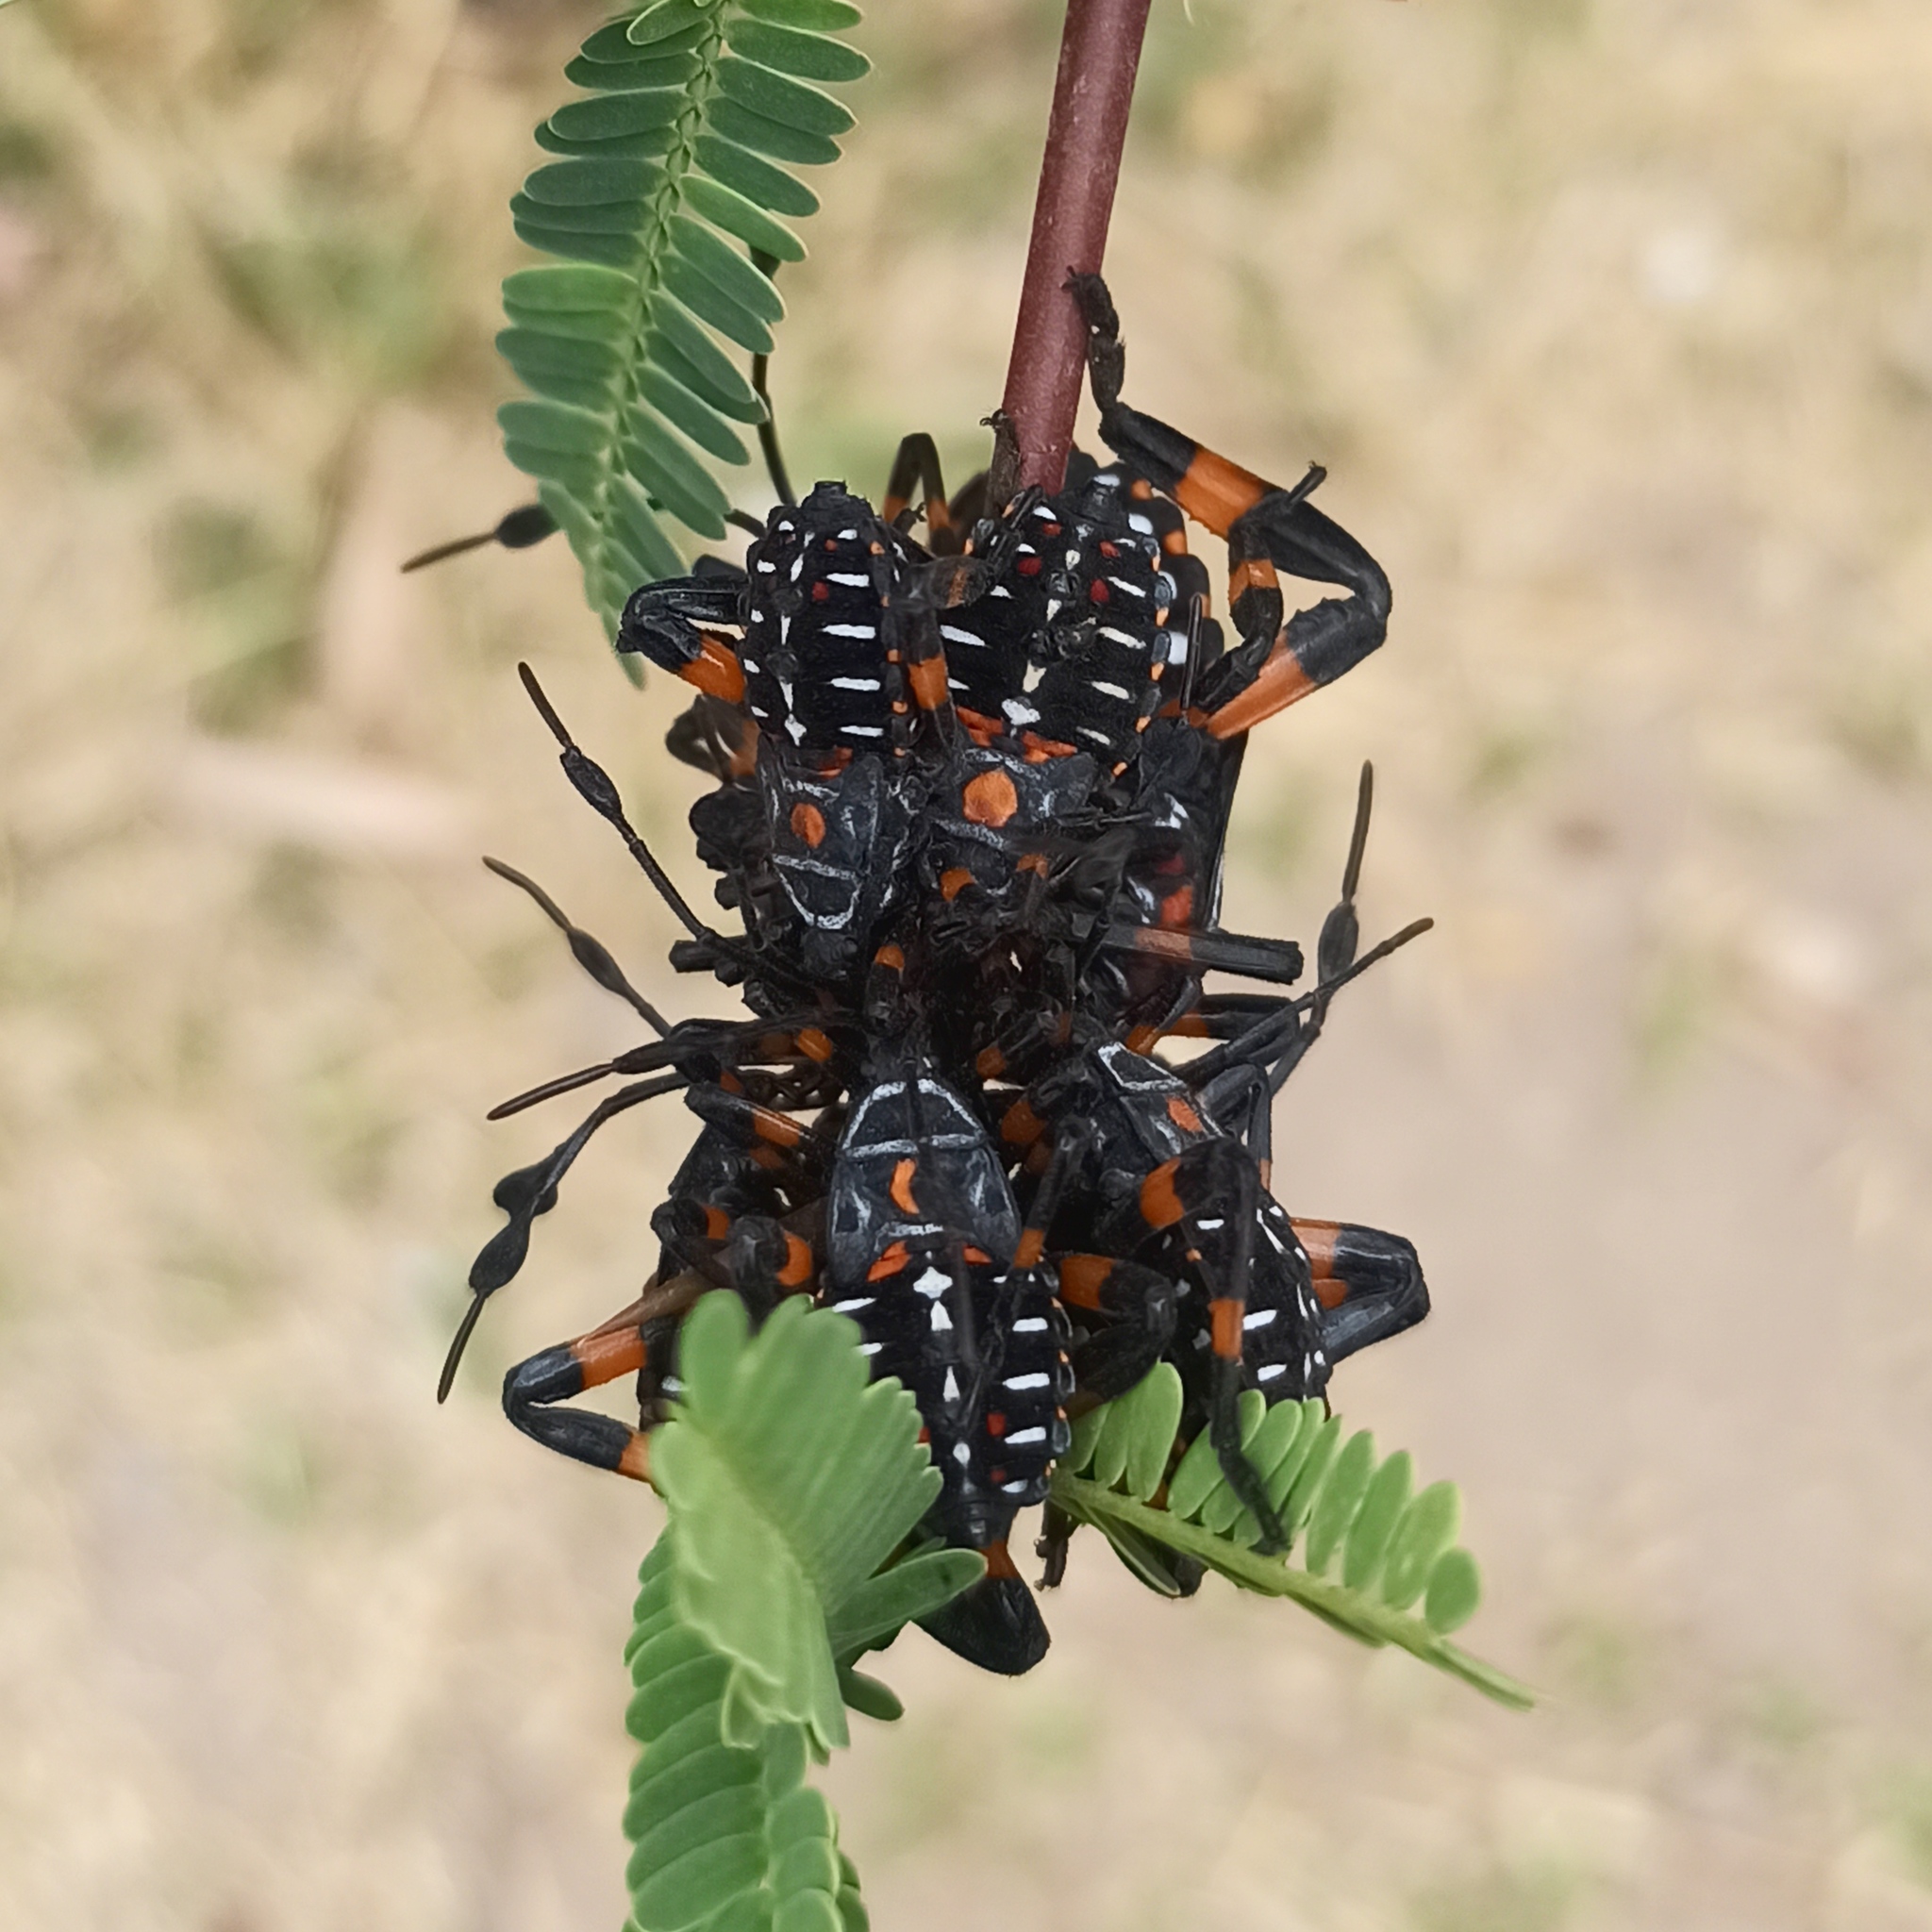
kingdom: Animalia
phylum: Arthropoda
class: Insecta
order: Hemiptera
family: Coreidae
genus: Thasus
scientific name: Thasus
